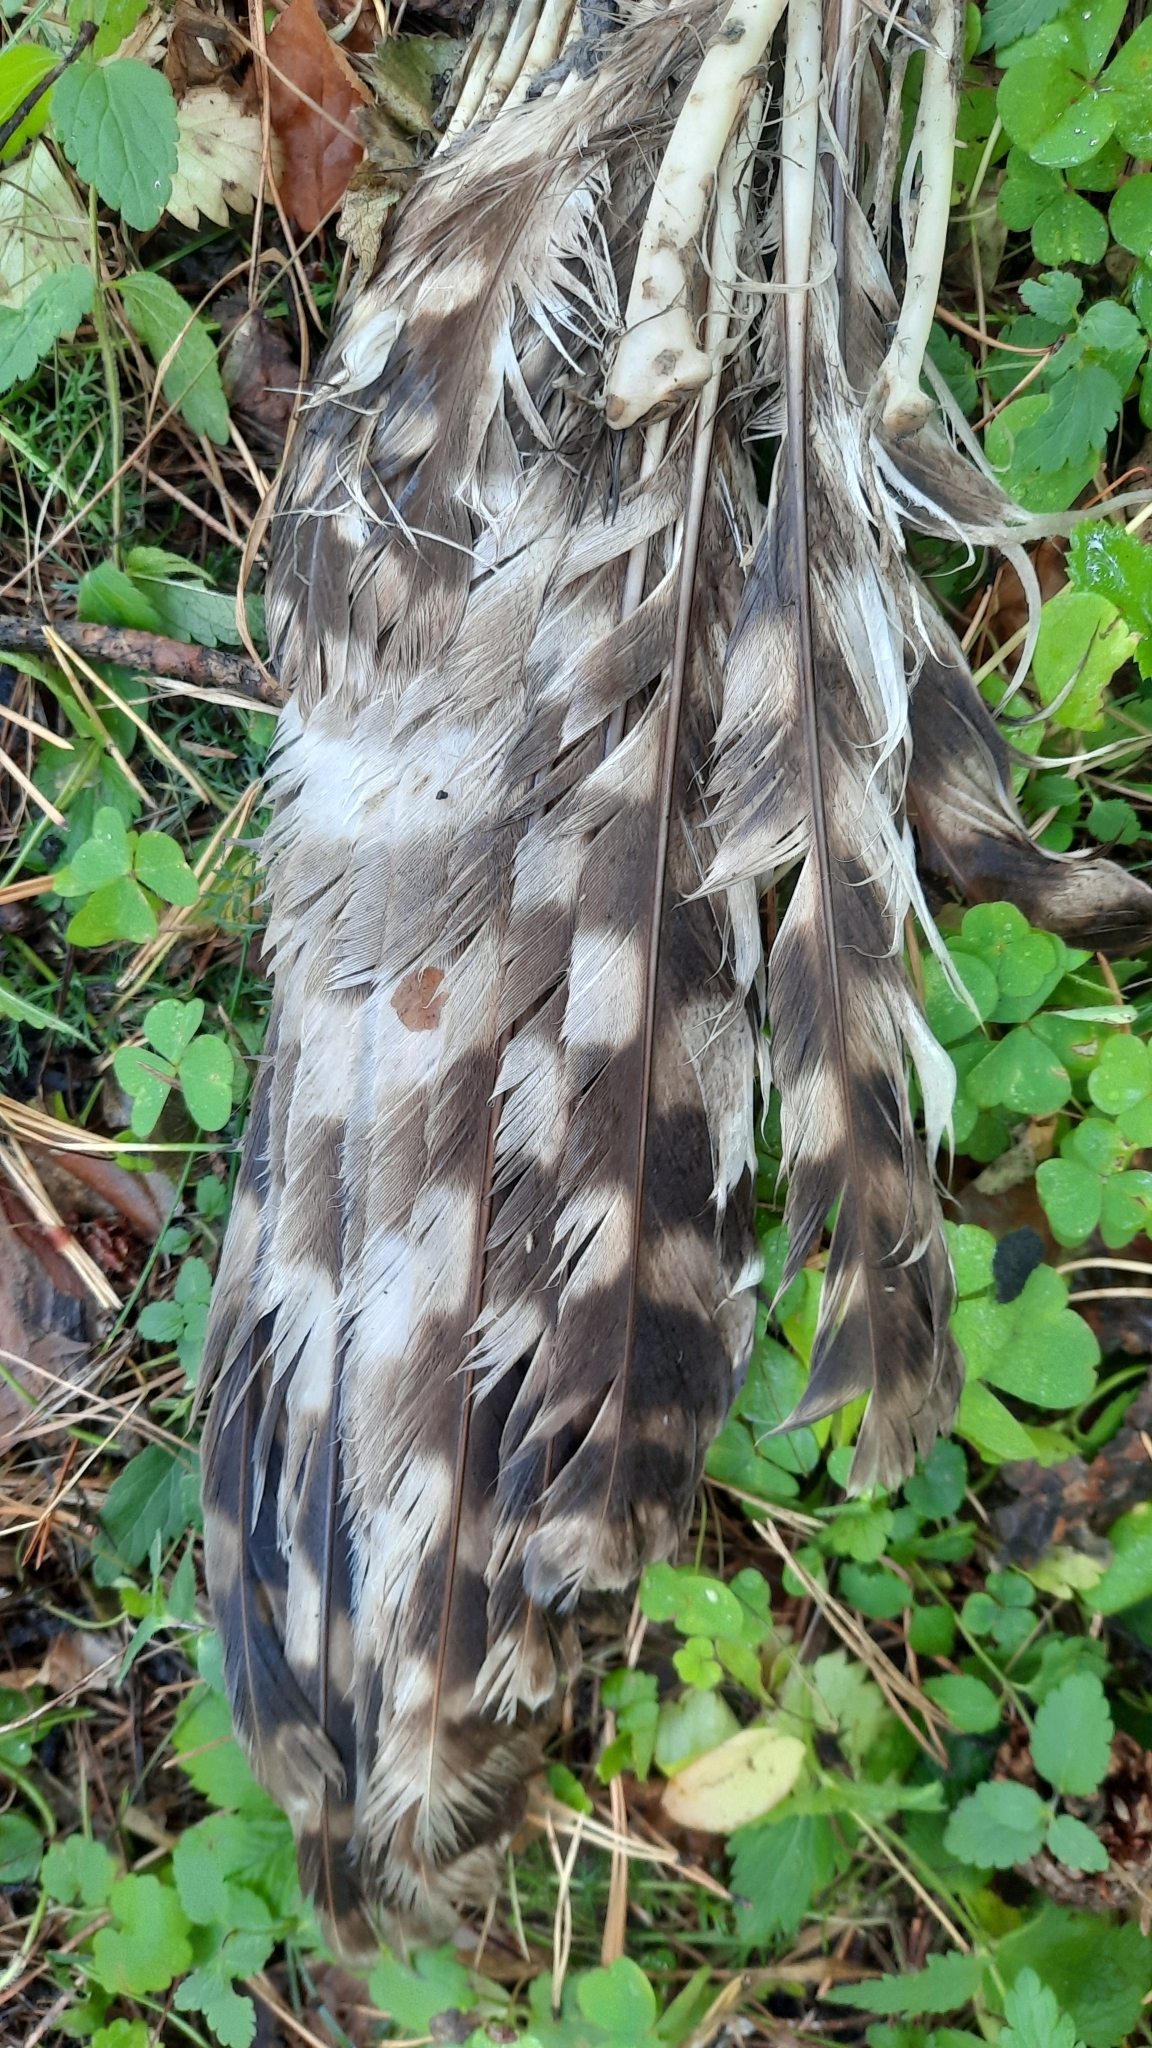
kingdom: Animalia
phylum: Chordata
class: Aves
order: Strigiformes
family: Strigidae
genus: Strix
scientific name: Strix uralensis
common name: Ural owl
